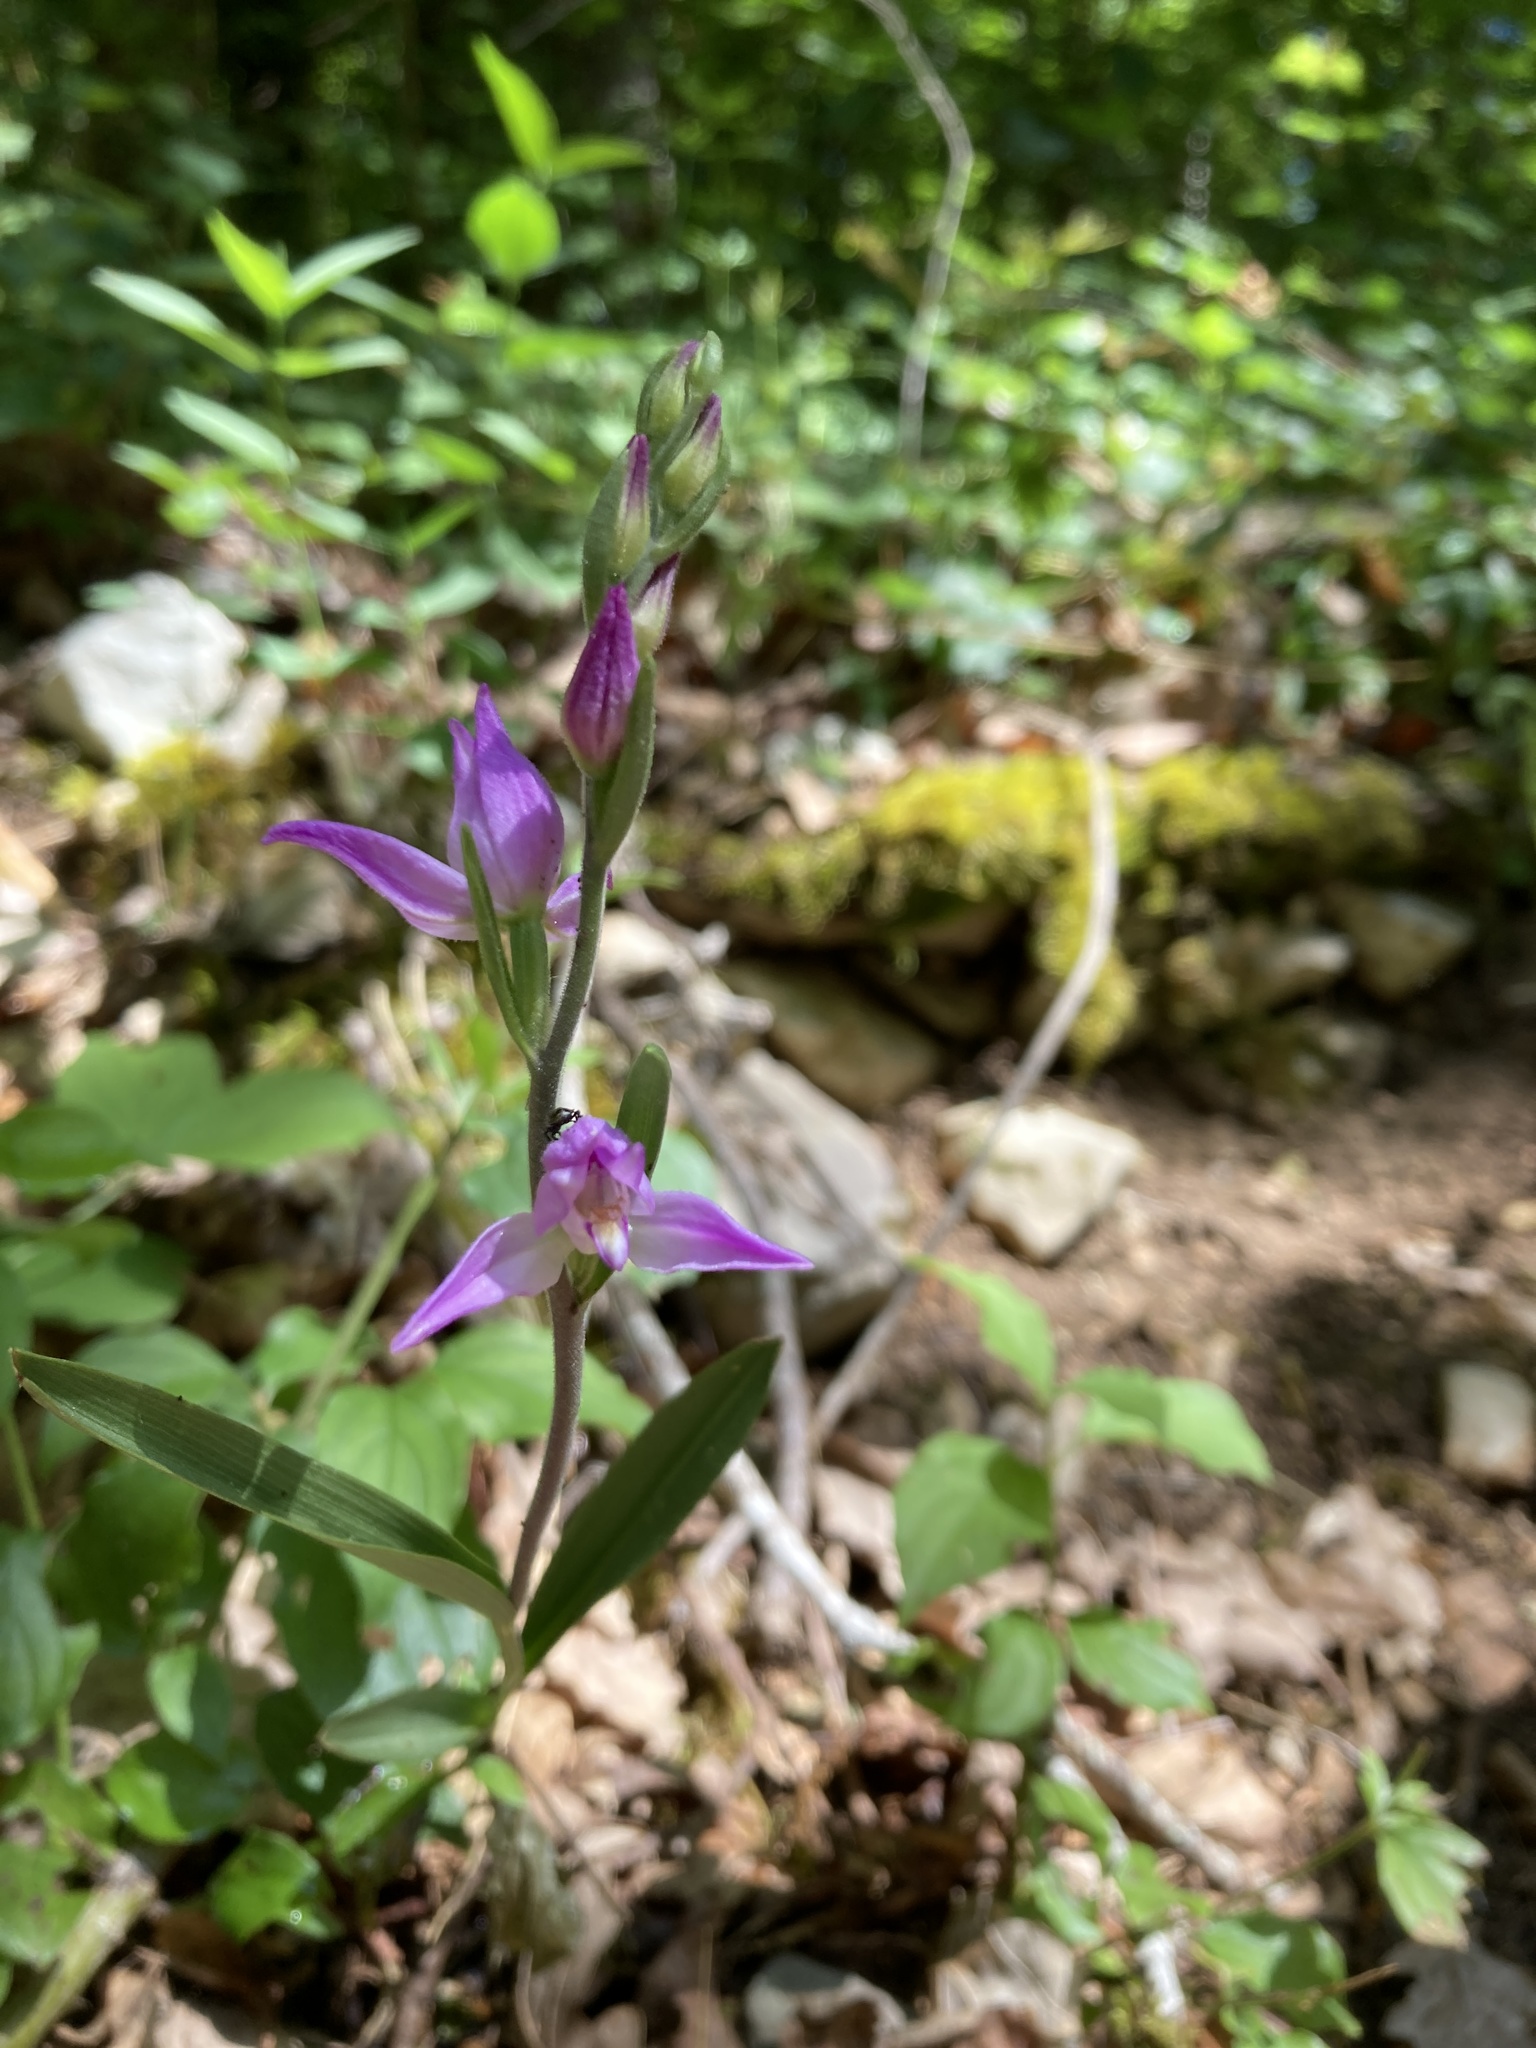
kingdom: Plantae
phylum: Tracheophyta
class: Liliopsida
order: Asparagales
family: Orchidaceae
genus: Cephalanthera
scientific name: Cephalanthera rubra
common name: Red helleborine
